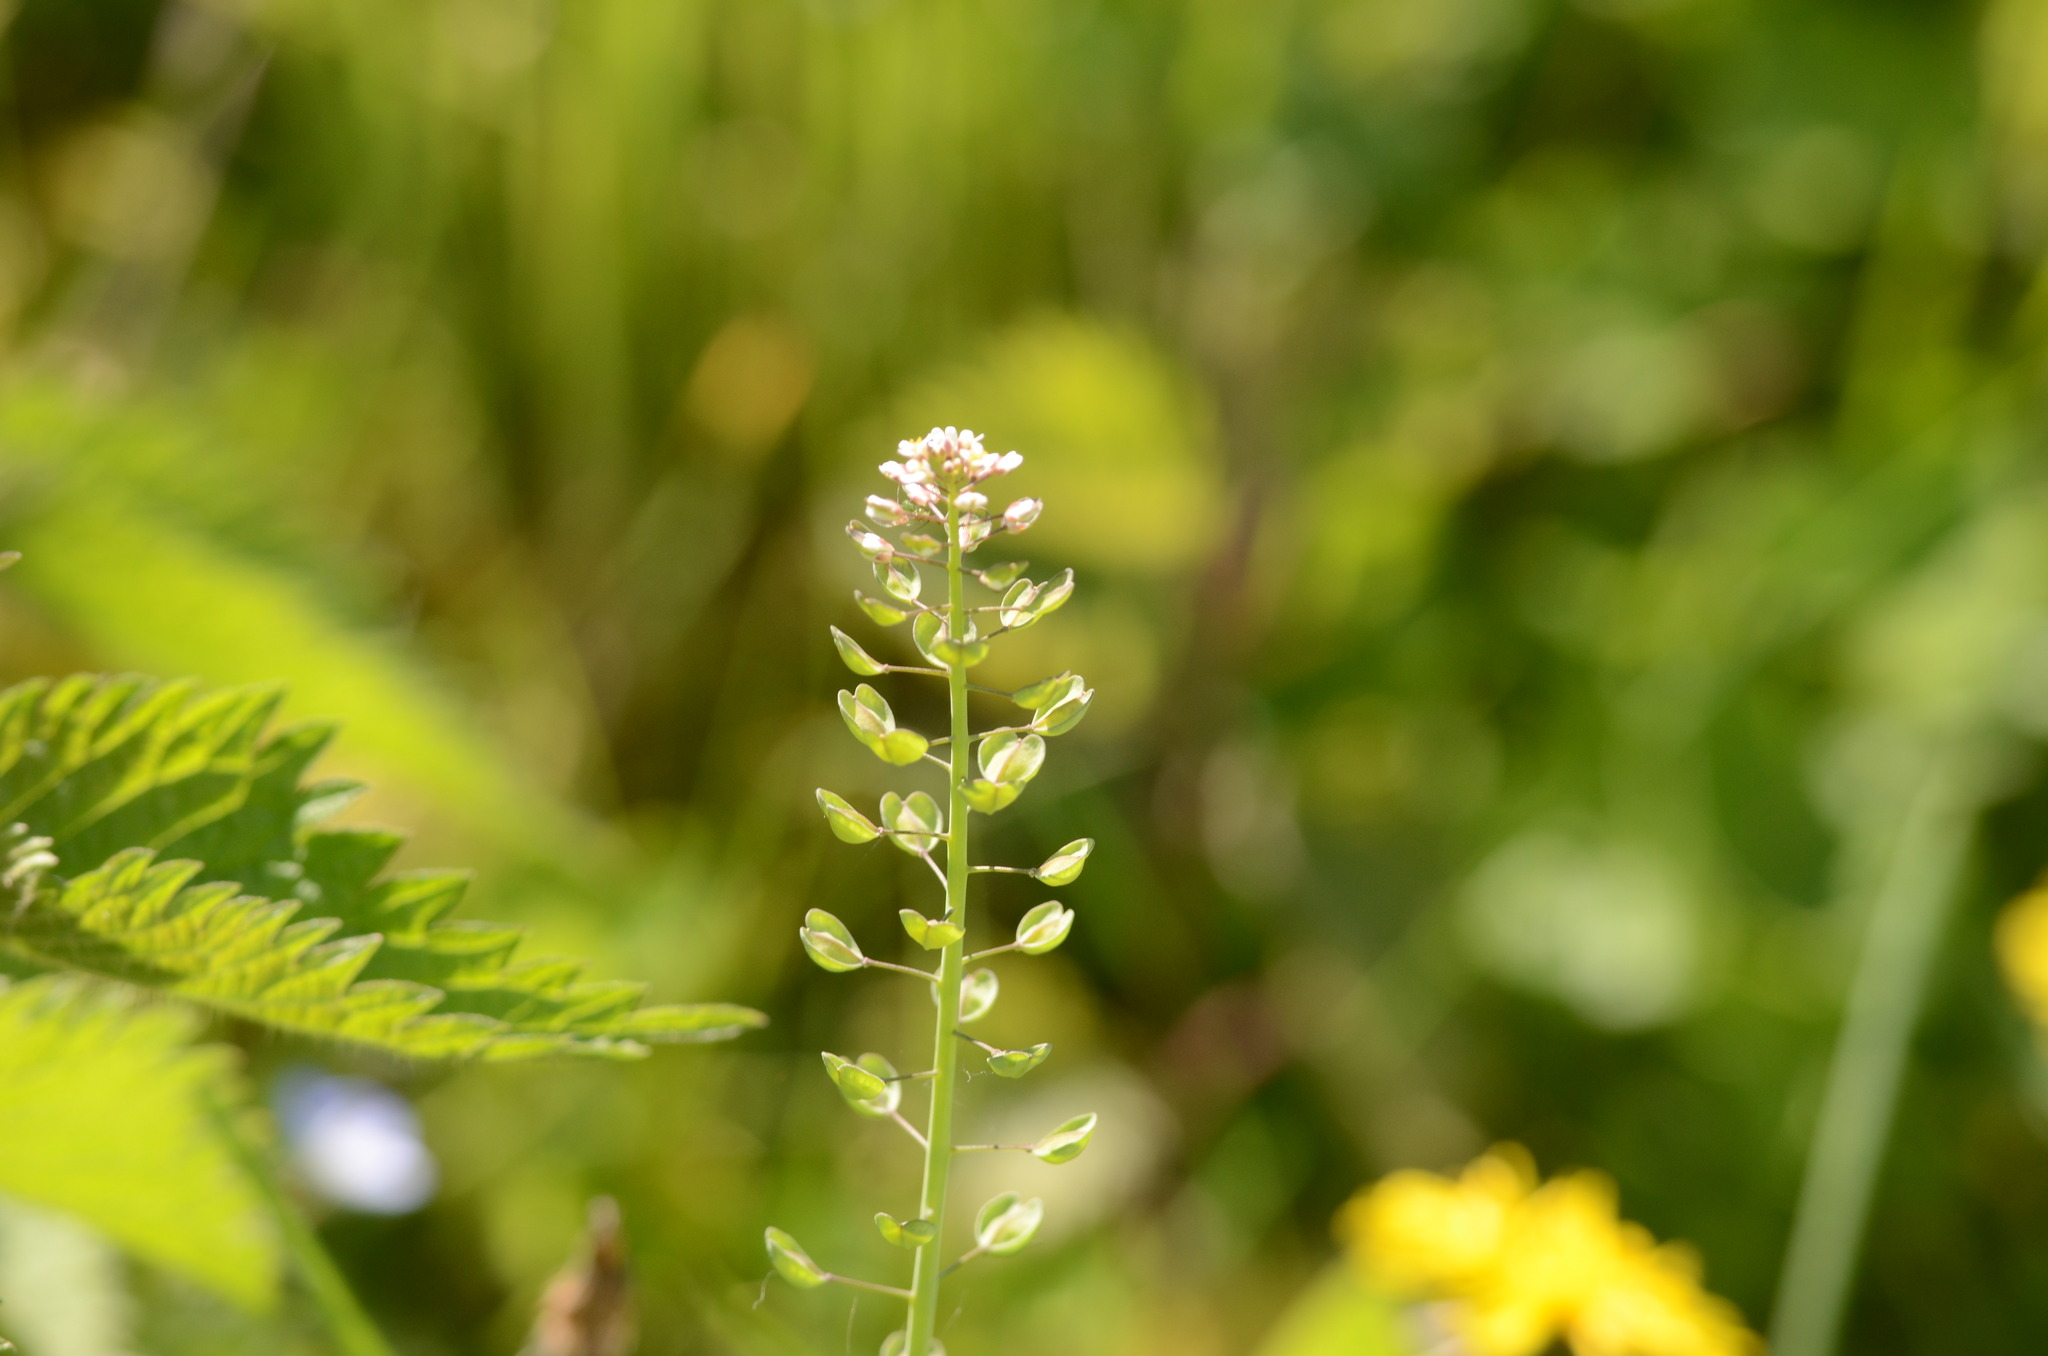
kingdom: Plantae
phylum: Tracheophyta
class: Magnoliopsida
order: Brassicales
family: Brassicaceae
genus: Noccaea
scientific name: Noccaea perfoliata
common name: Perfoliate pennycress
